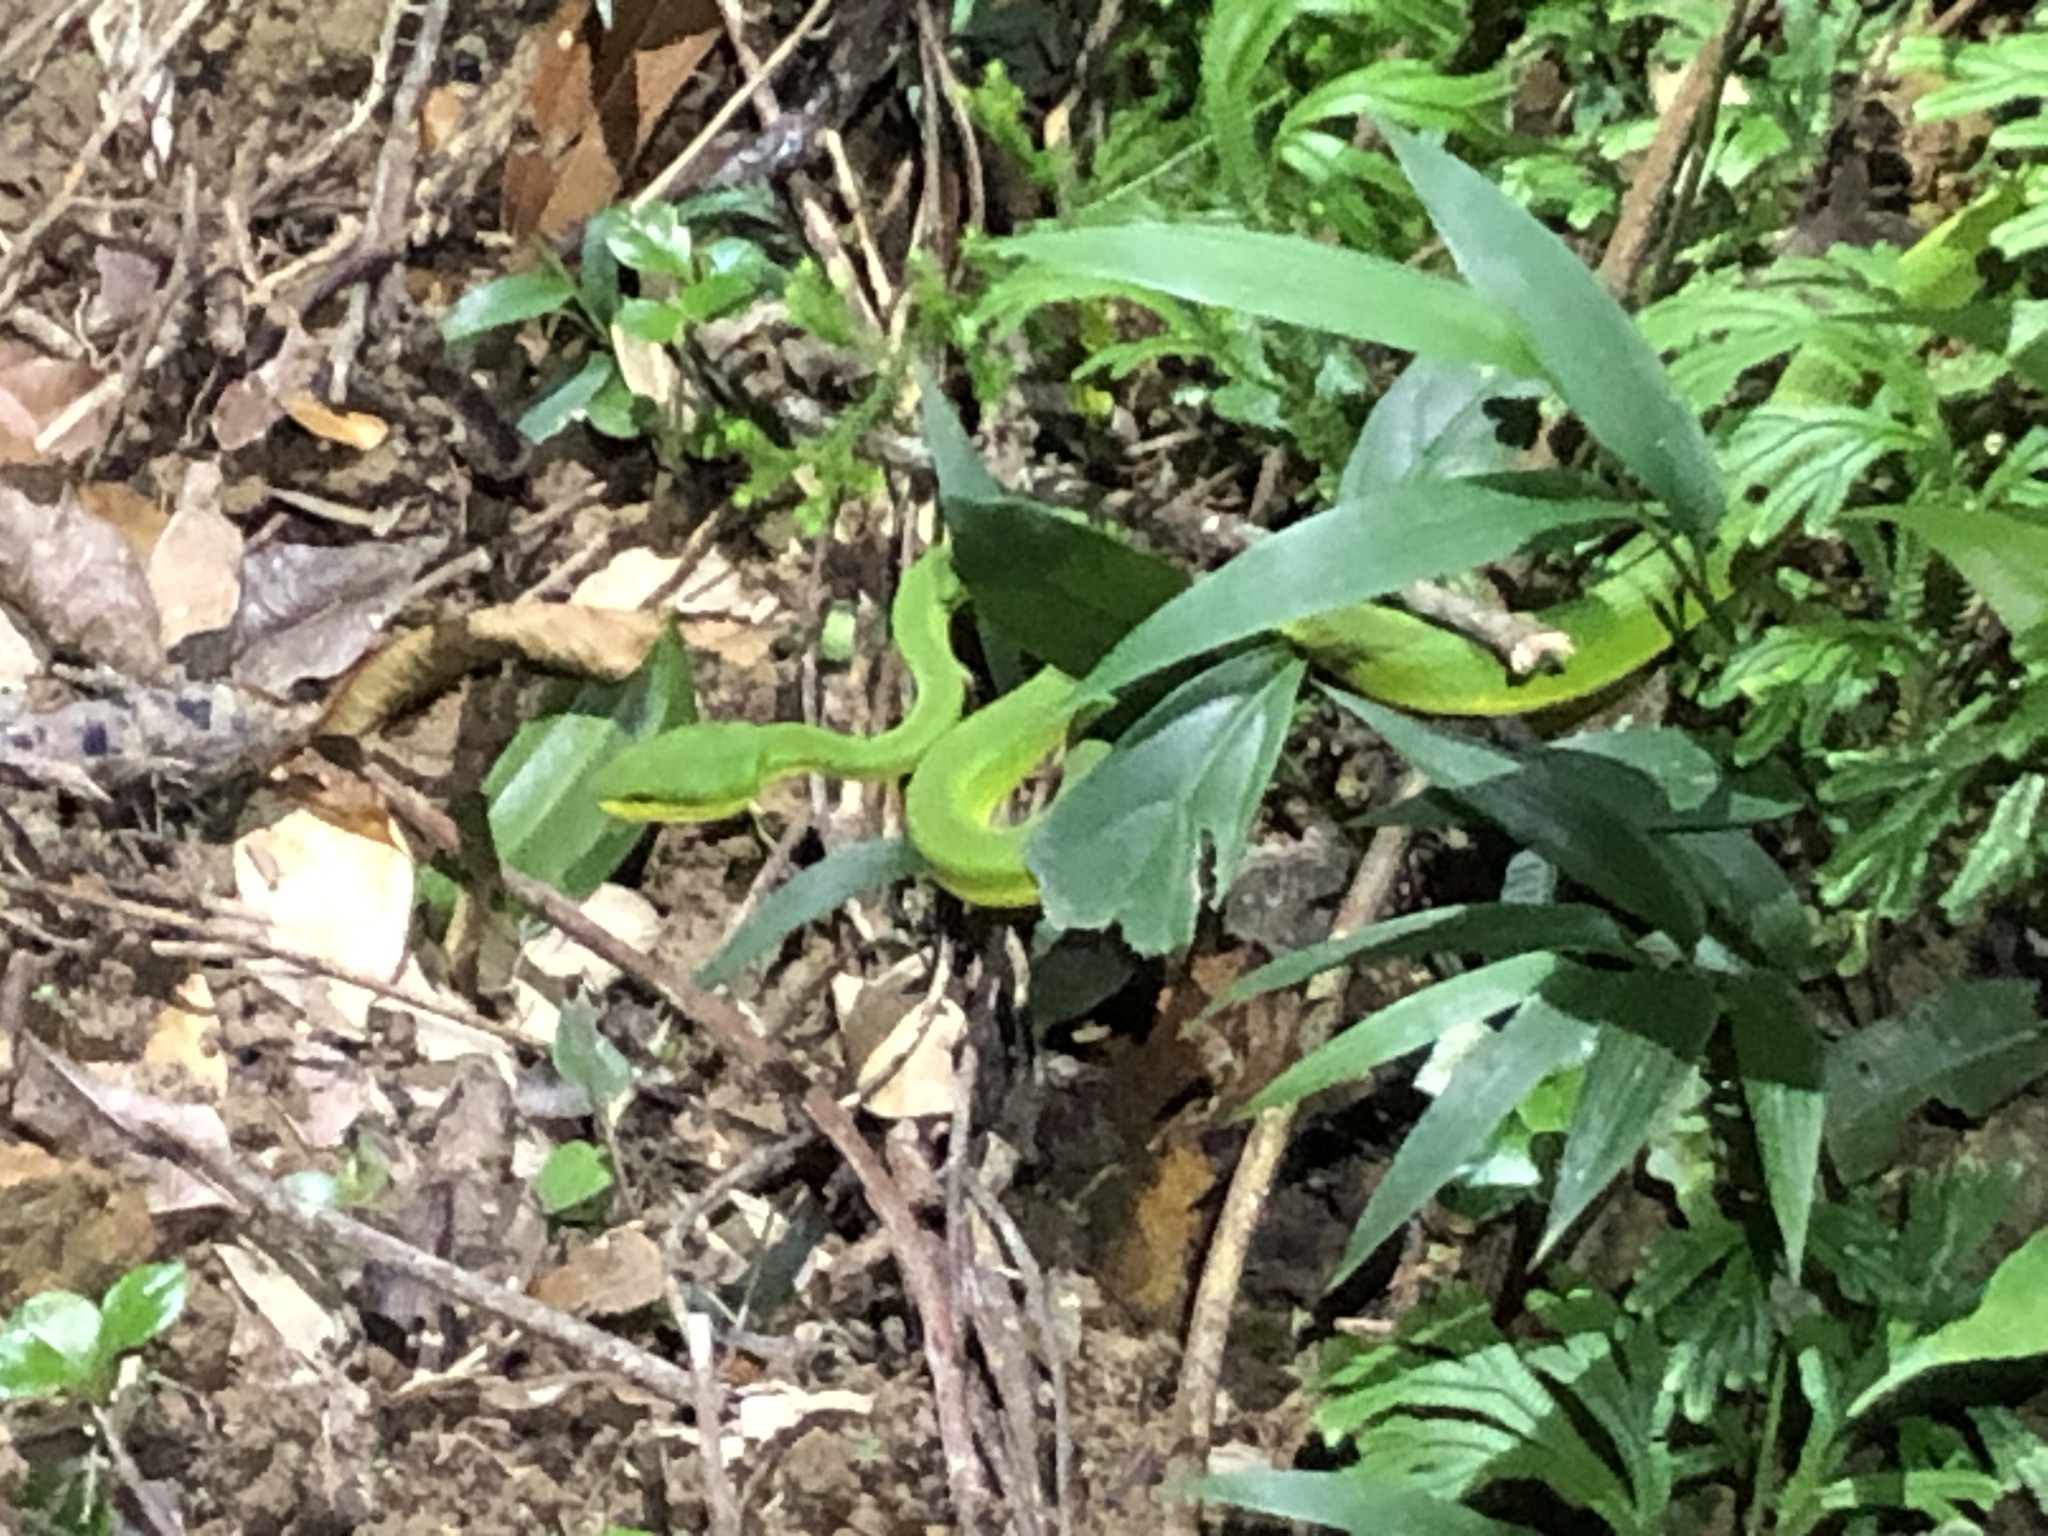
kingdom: Animalia
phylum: Chordata
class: Squamata
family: Viperidae
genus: Trimeresurus
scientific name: Trimeresurus albolabris
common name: White-lipped pitviper
